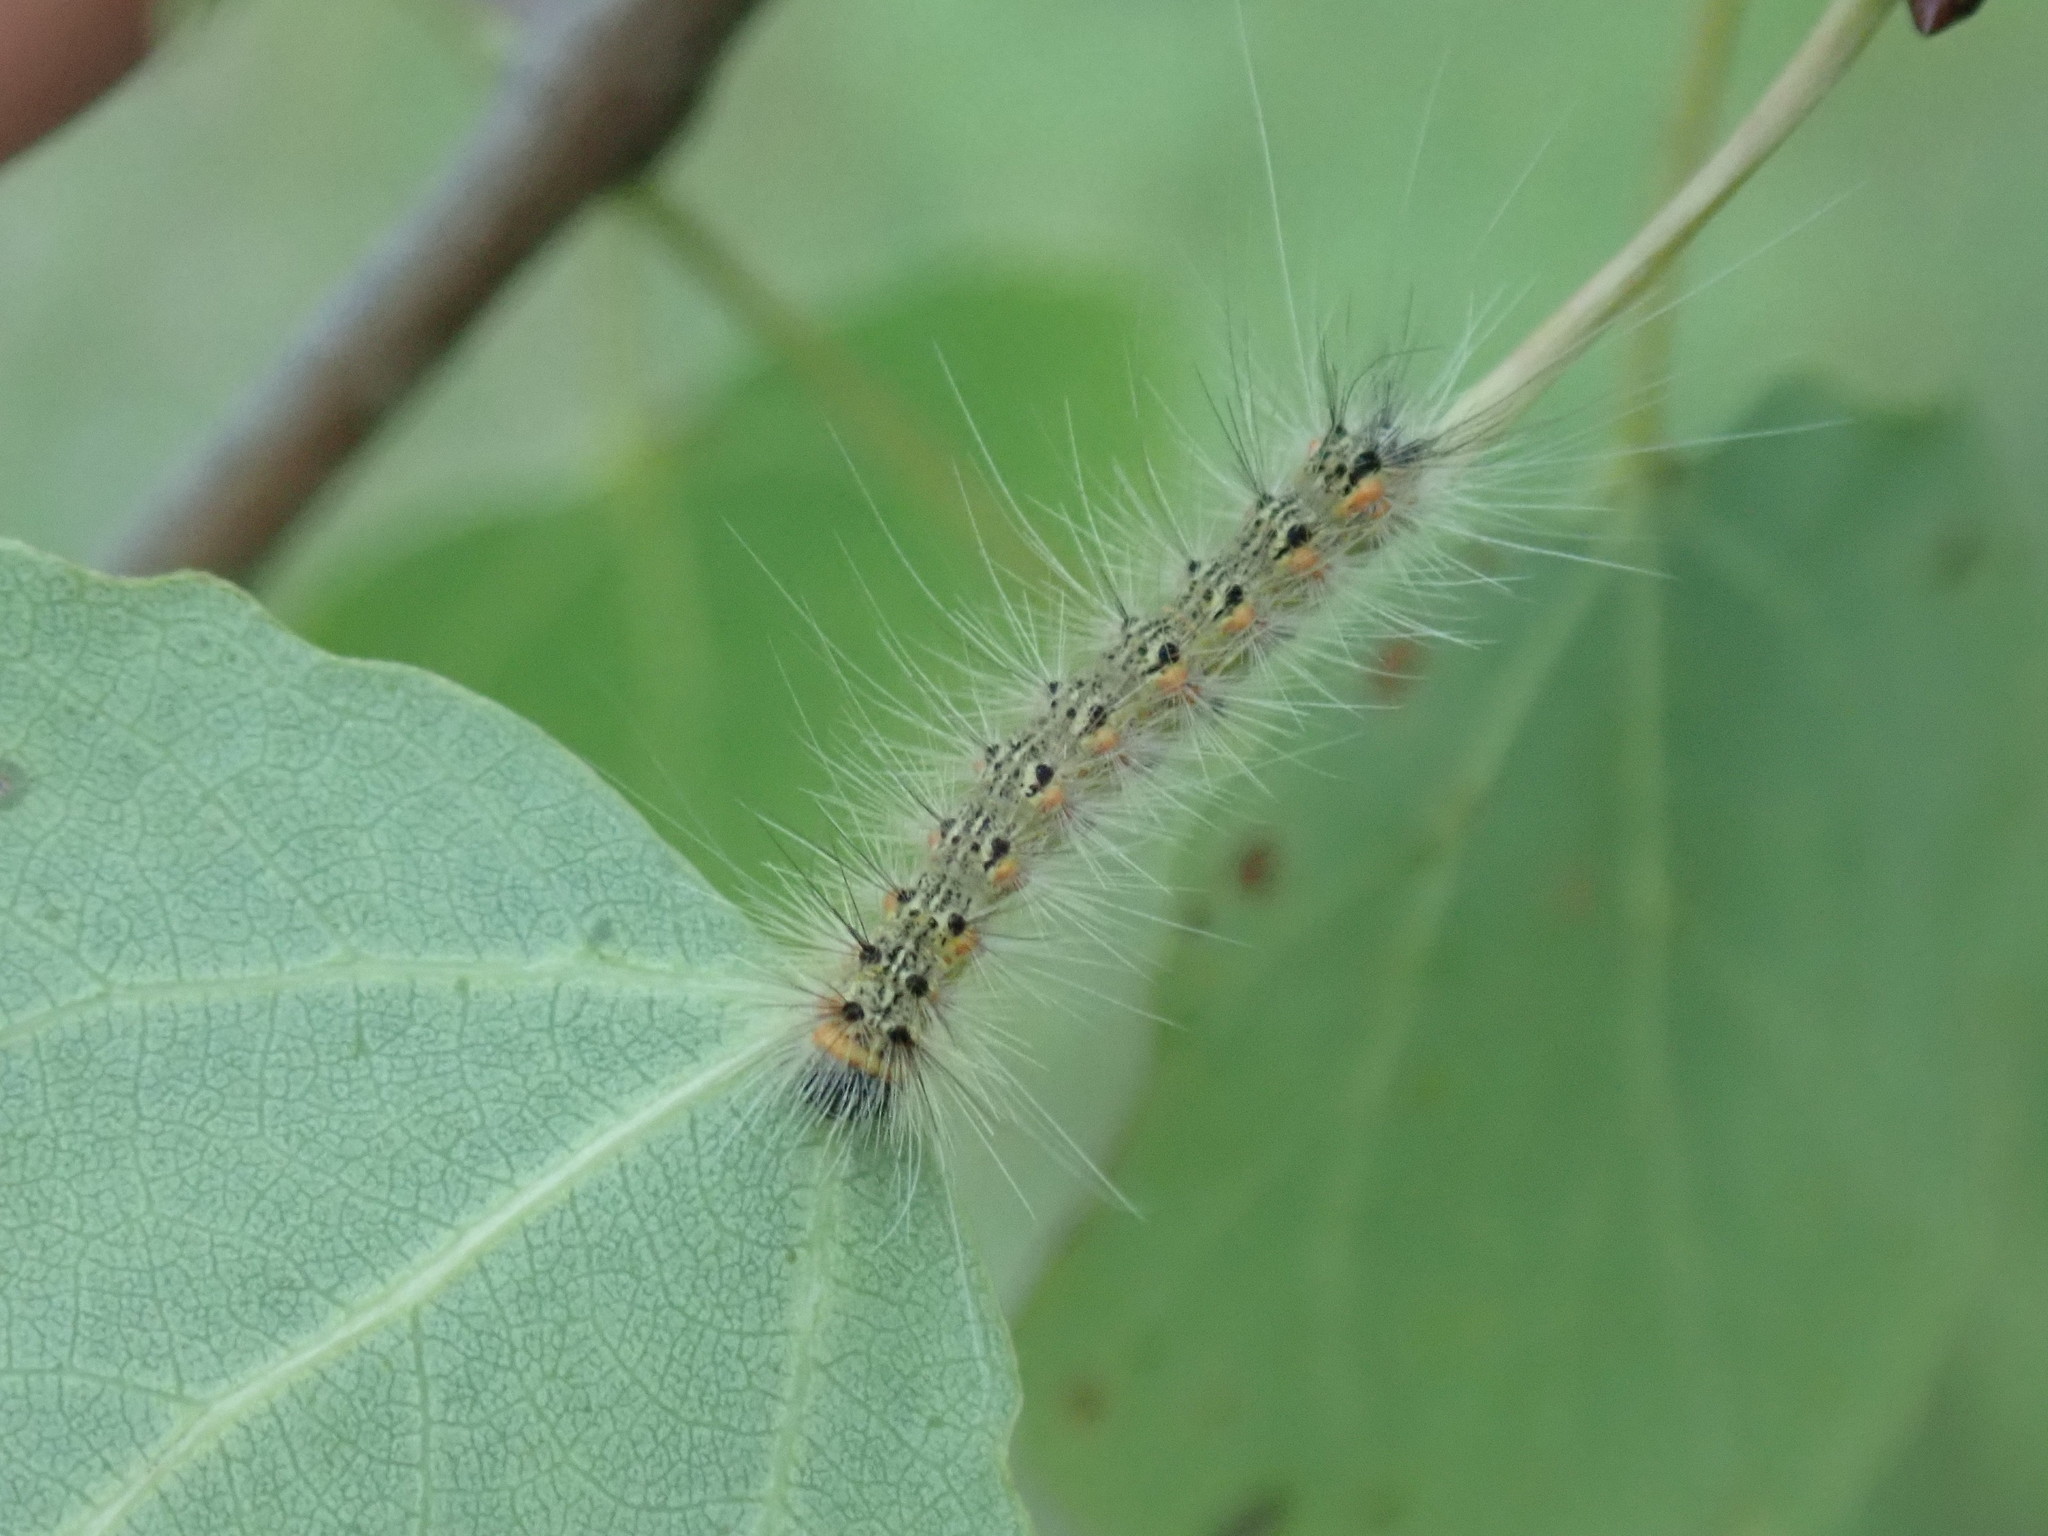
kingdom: Animalia
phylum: Arthropoda
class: Insecta
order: Lepidoptera
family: Erebidae
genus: Hyphantria
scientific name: Hyphantria cunea
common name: American white moth
